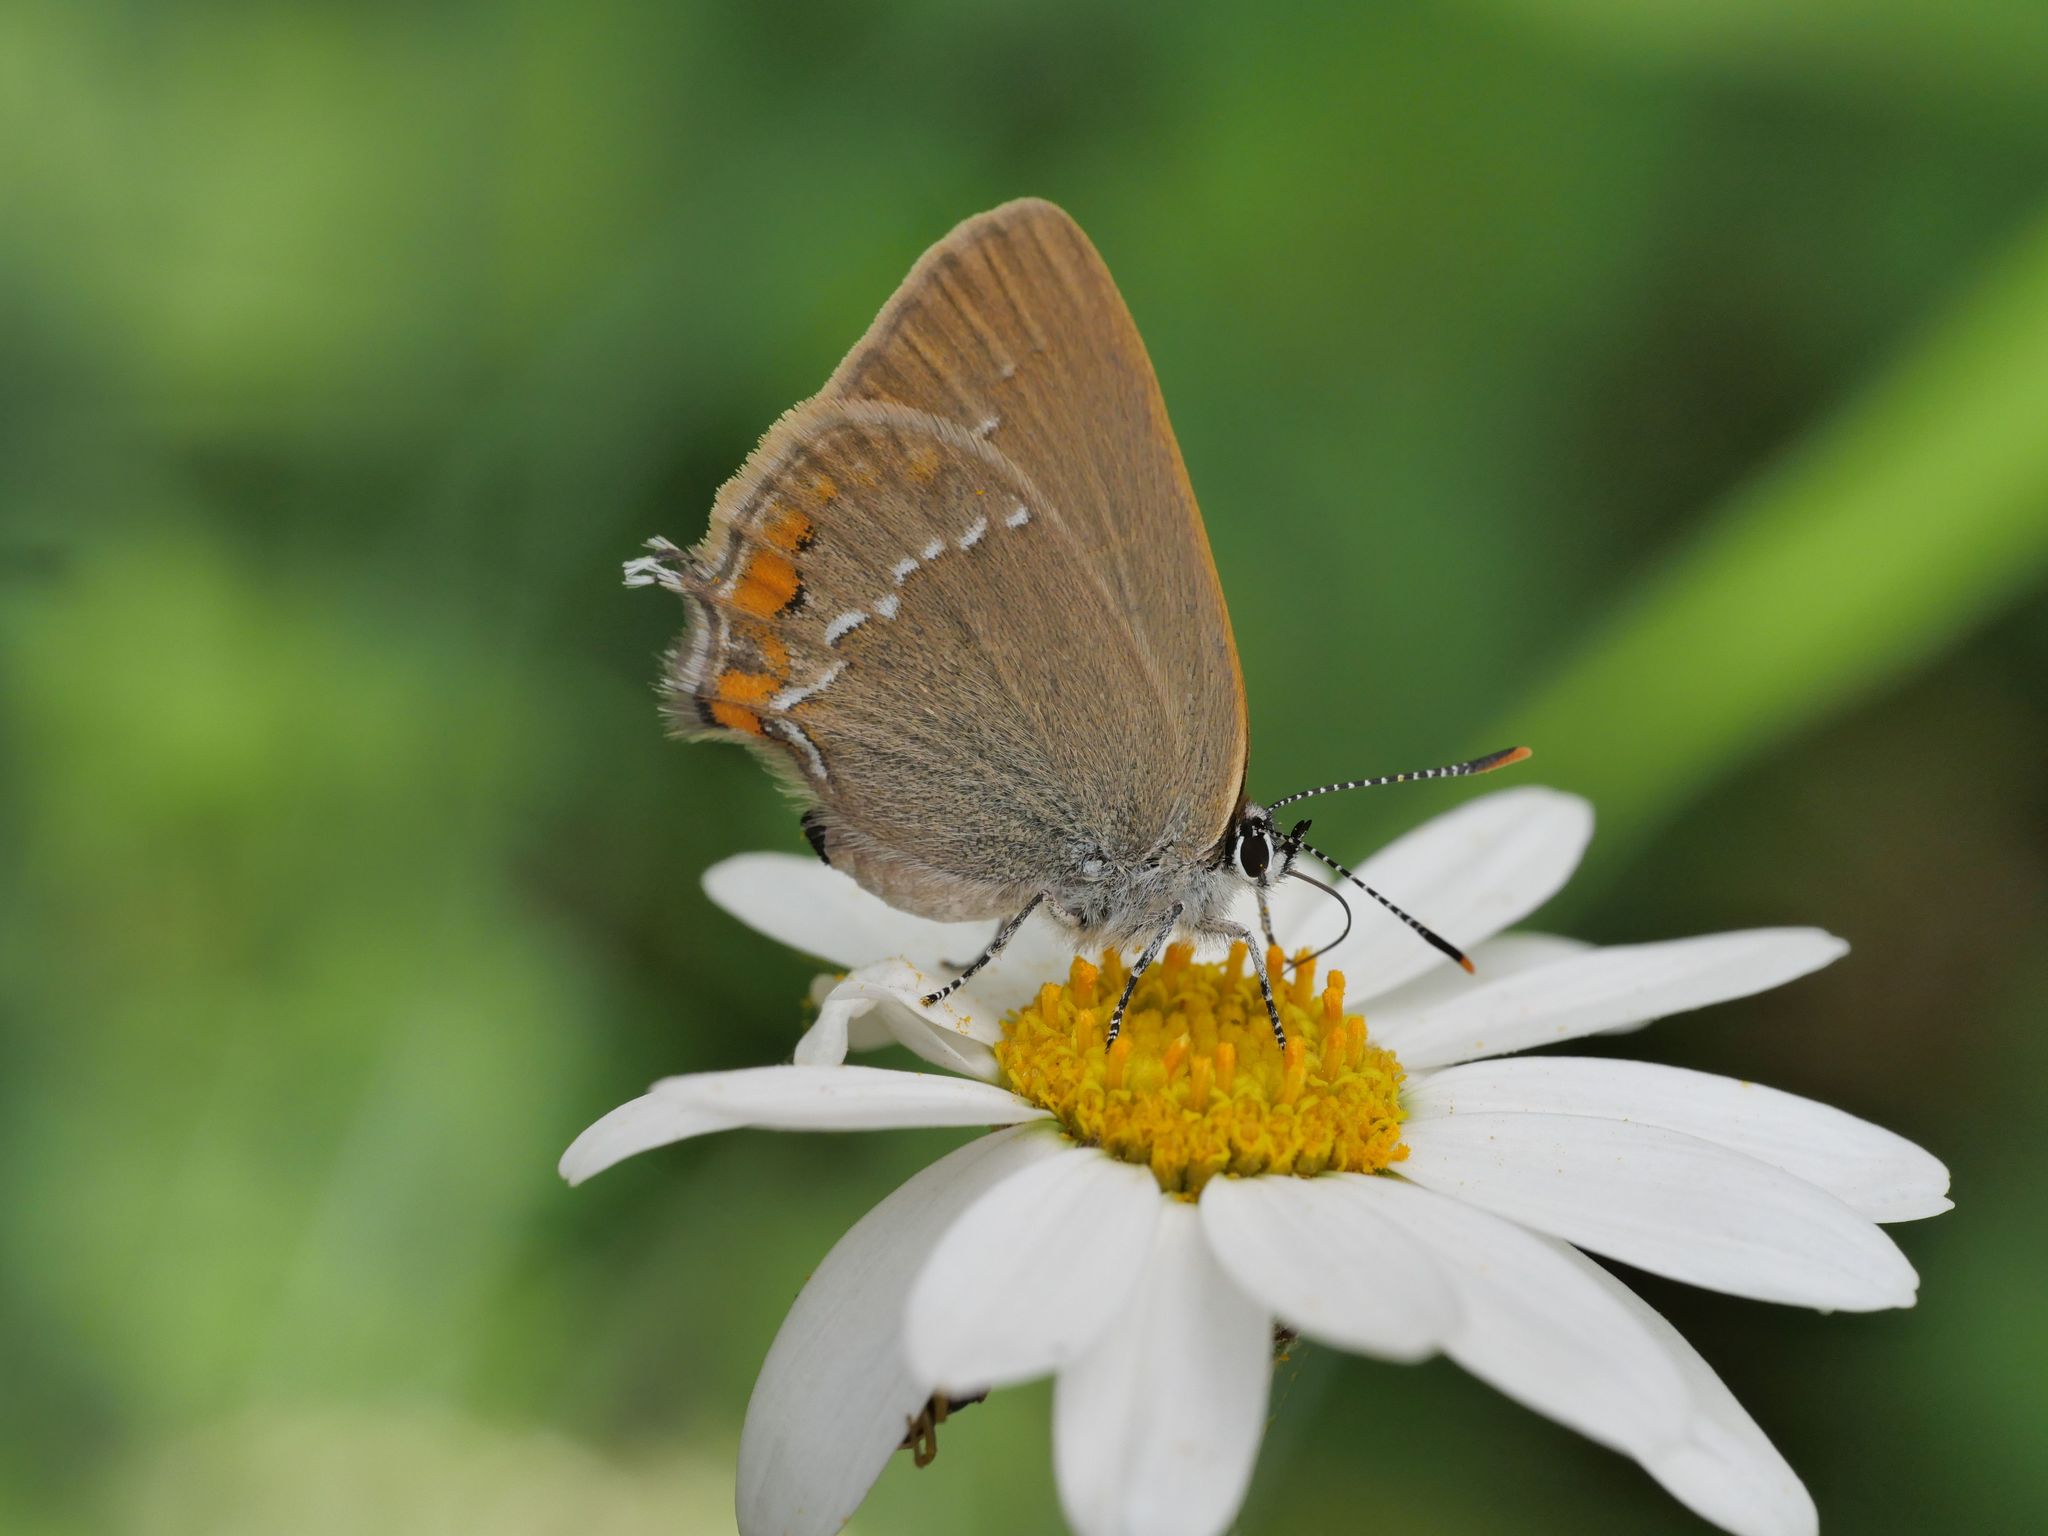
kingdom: Animalia
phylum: Arthropoda
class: Insecta
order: Lepidoptera
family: Lycaenidae
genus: Strymon
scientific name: Strymon acaciae
